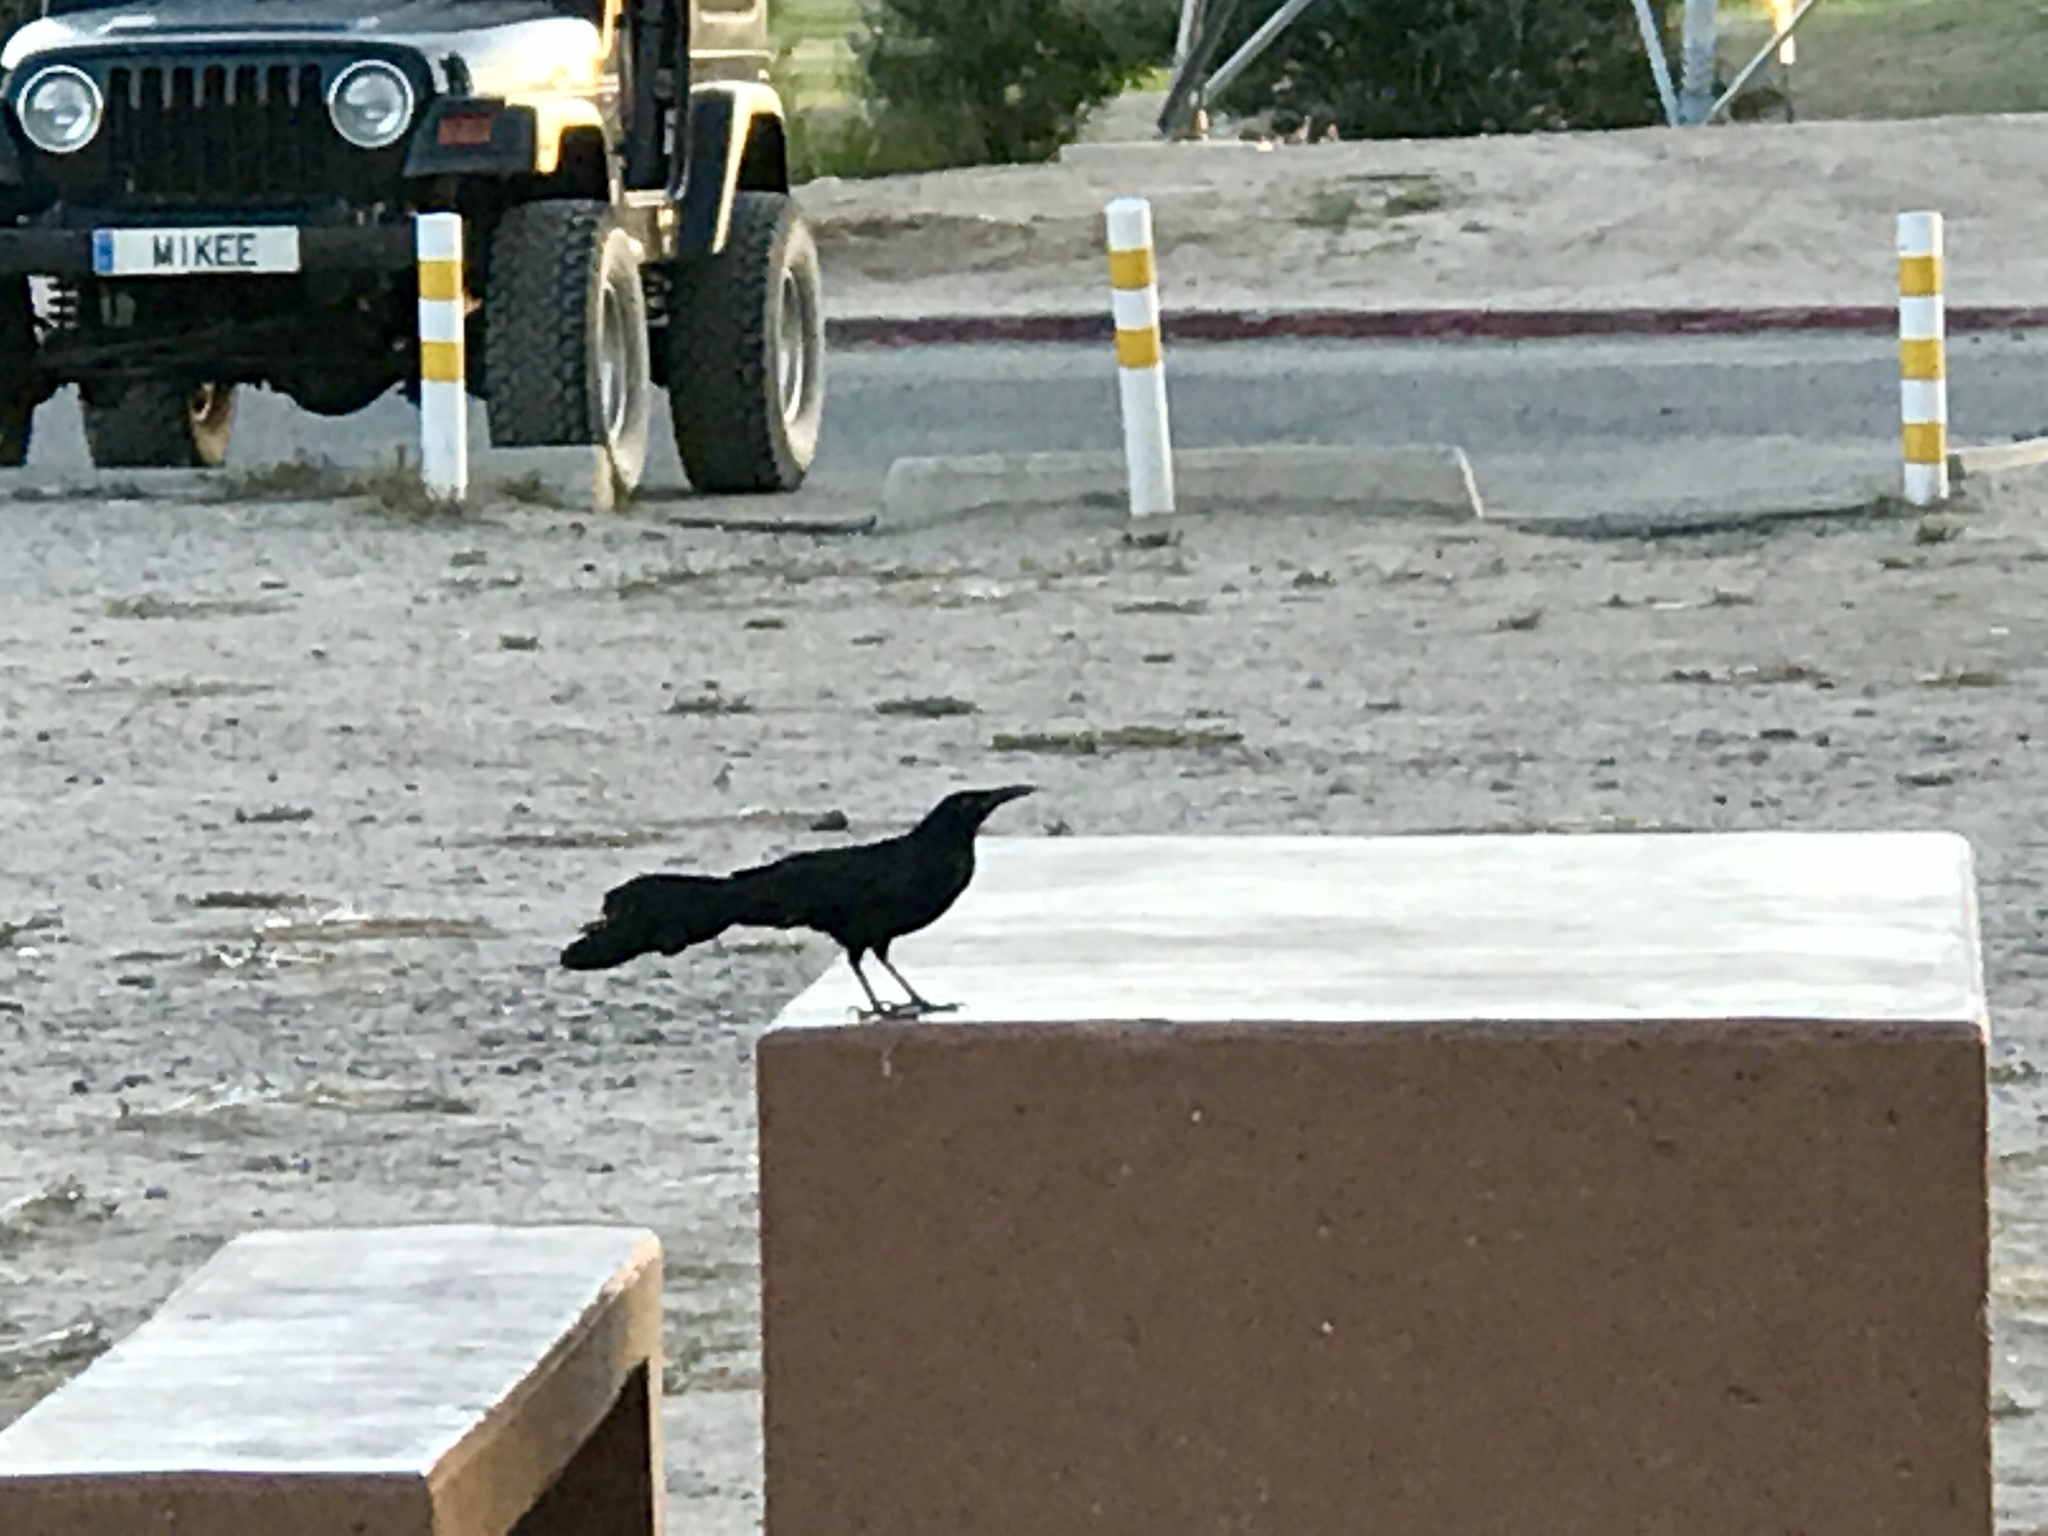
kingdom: Animalia
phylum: Chordata
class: Aves
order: Passeriformes
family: Icteridae
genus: Quiscalus
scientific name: Quiscalus mexicanus
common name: Great-tailed grackle
